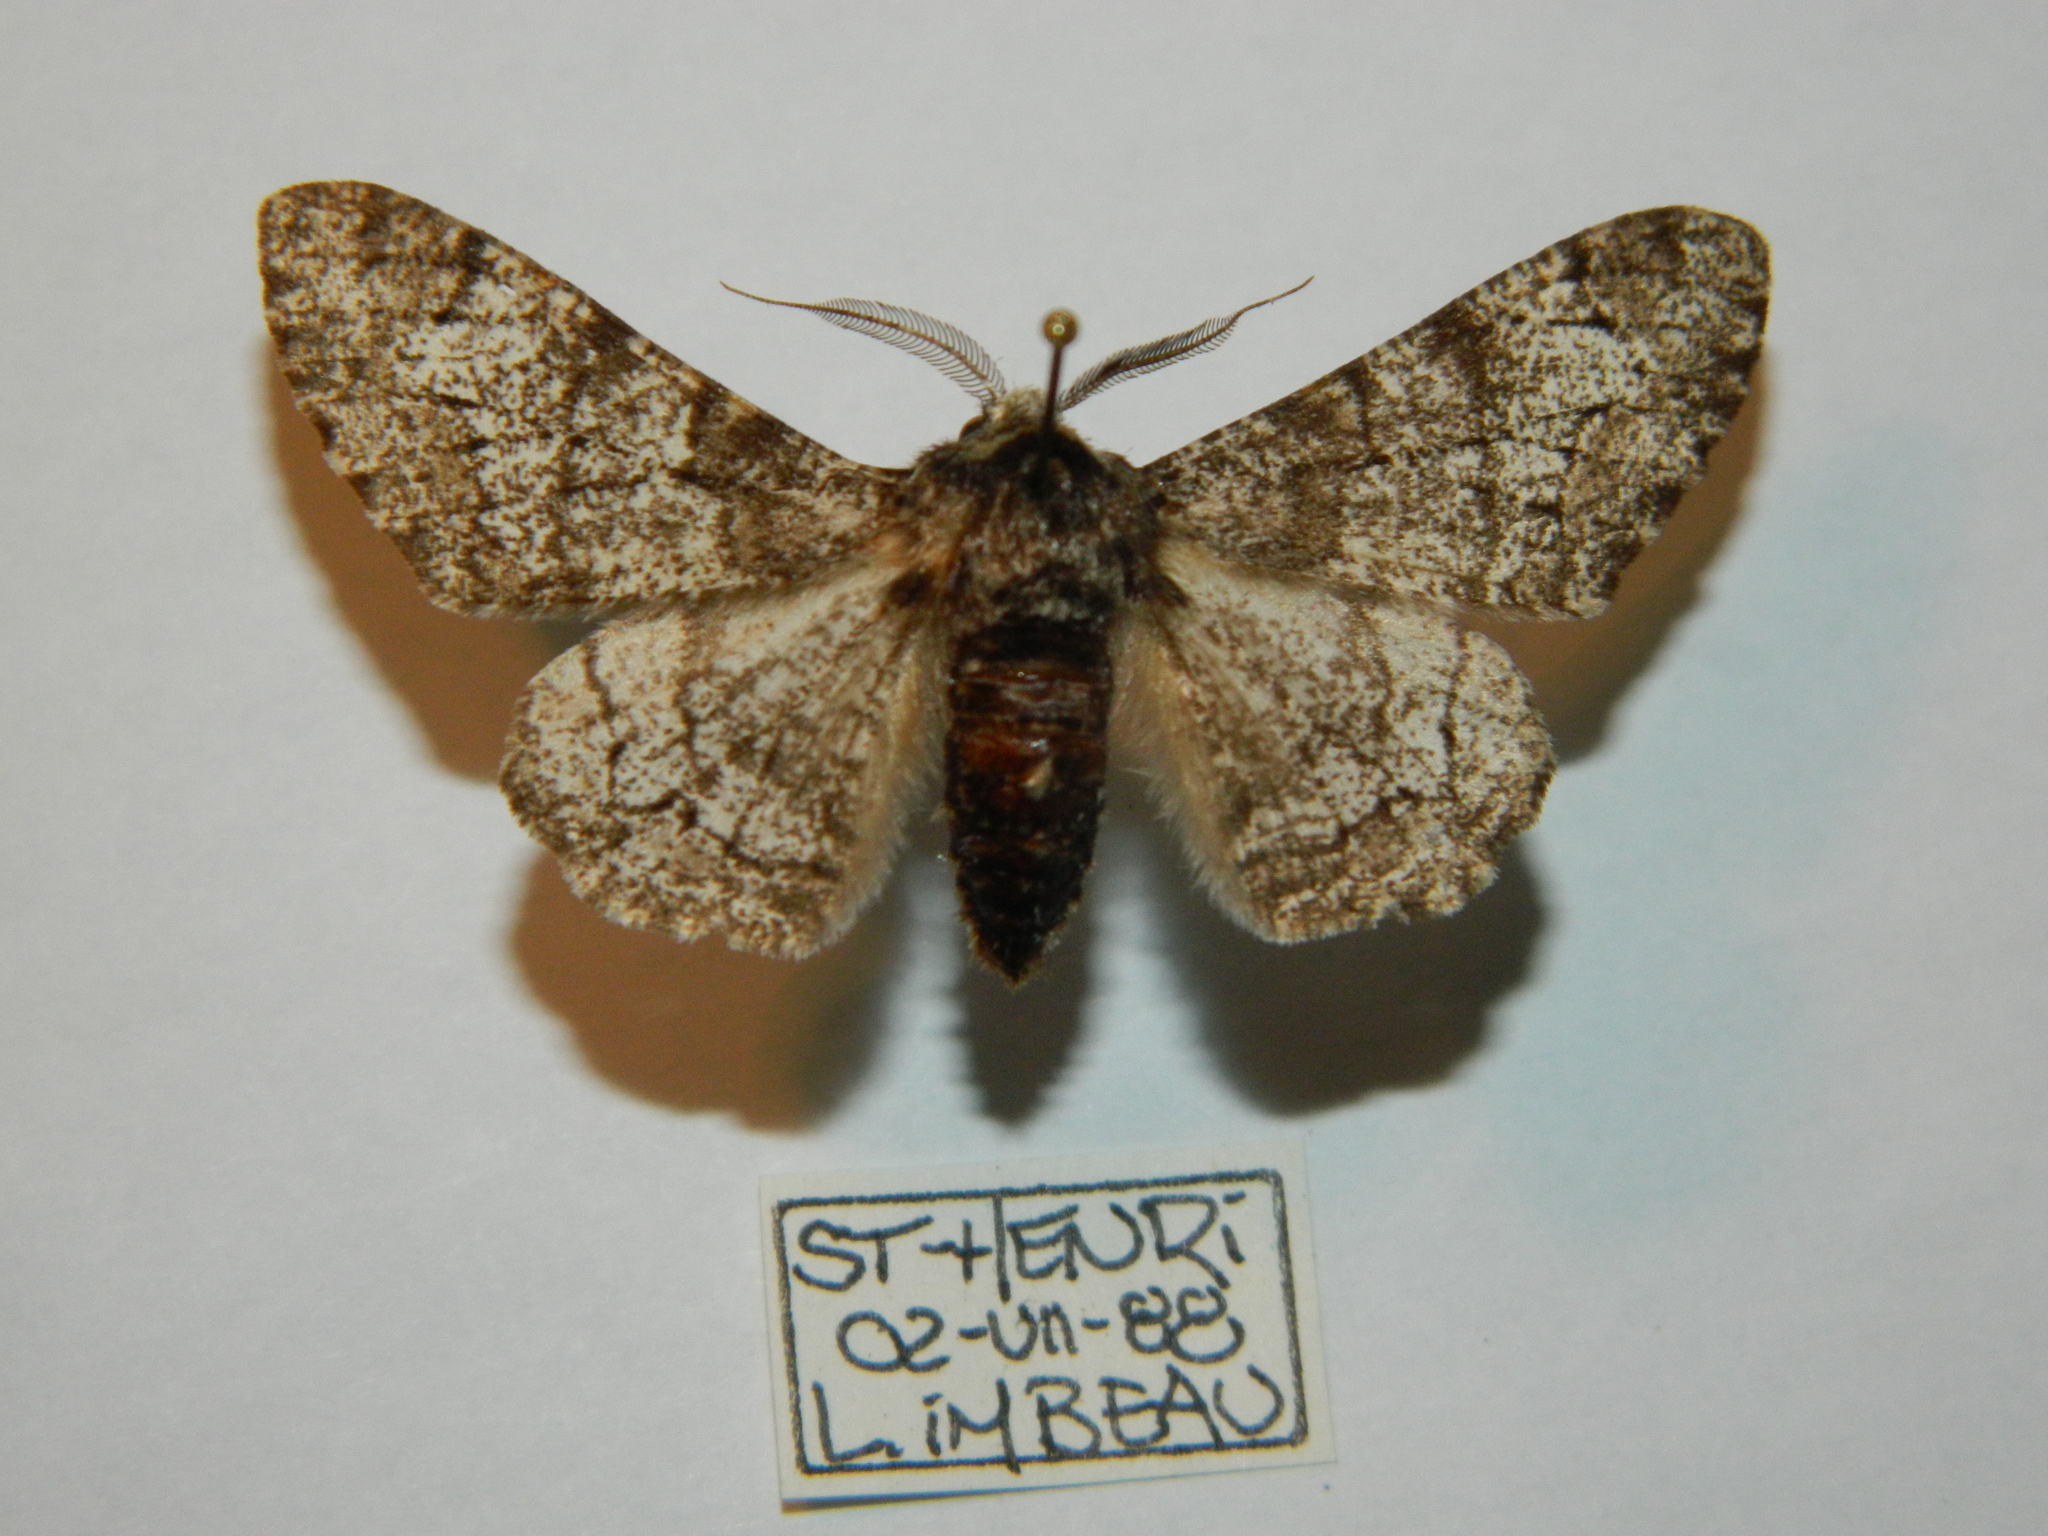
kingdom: Animalia
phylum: Arthropoda
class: Insecta
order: Lepidoptera
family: Geometridae
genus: Biston
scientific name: Biston betularia
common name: Peppered moth
